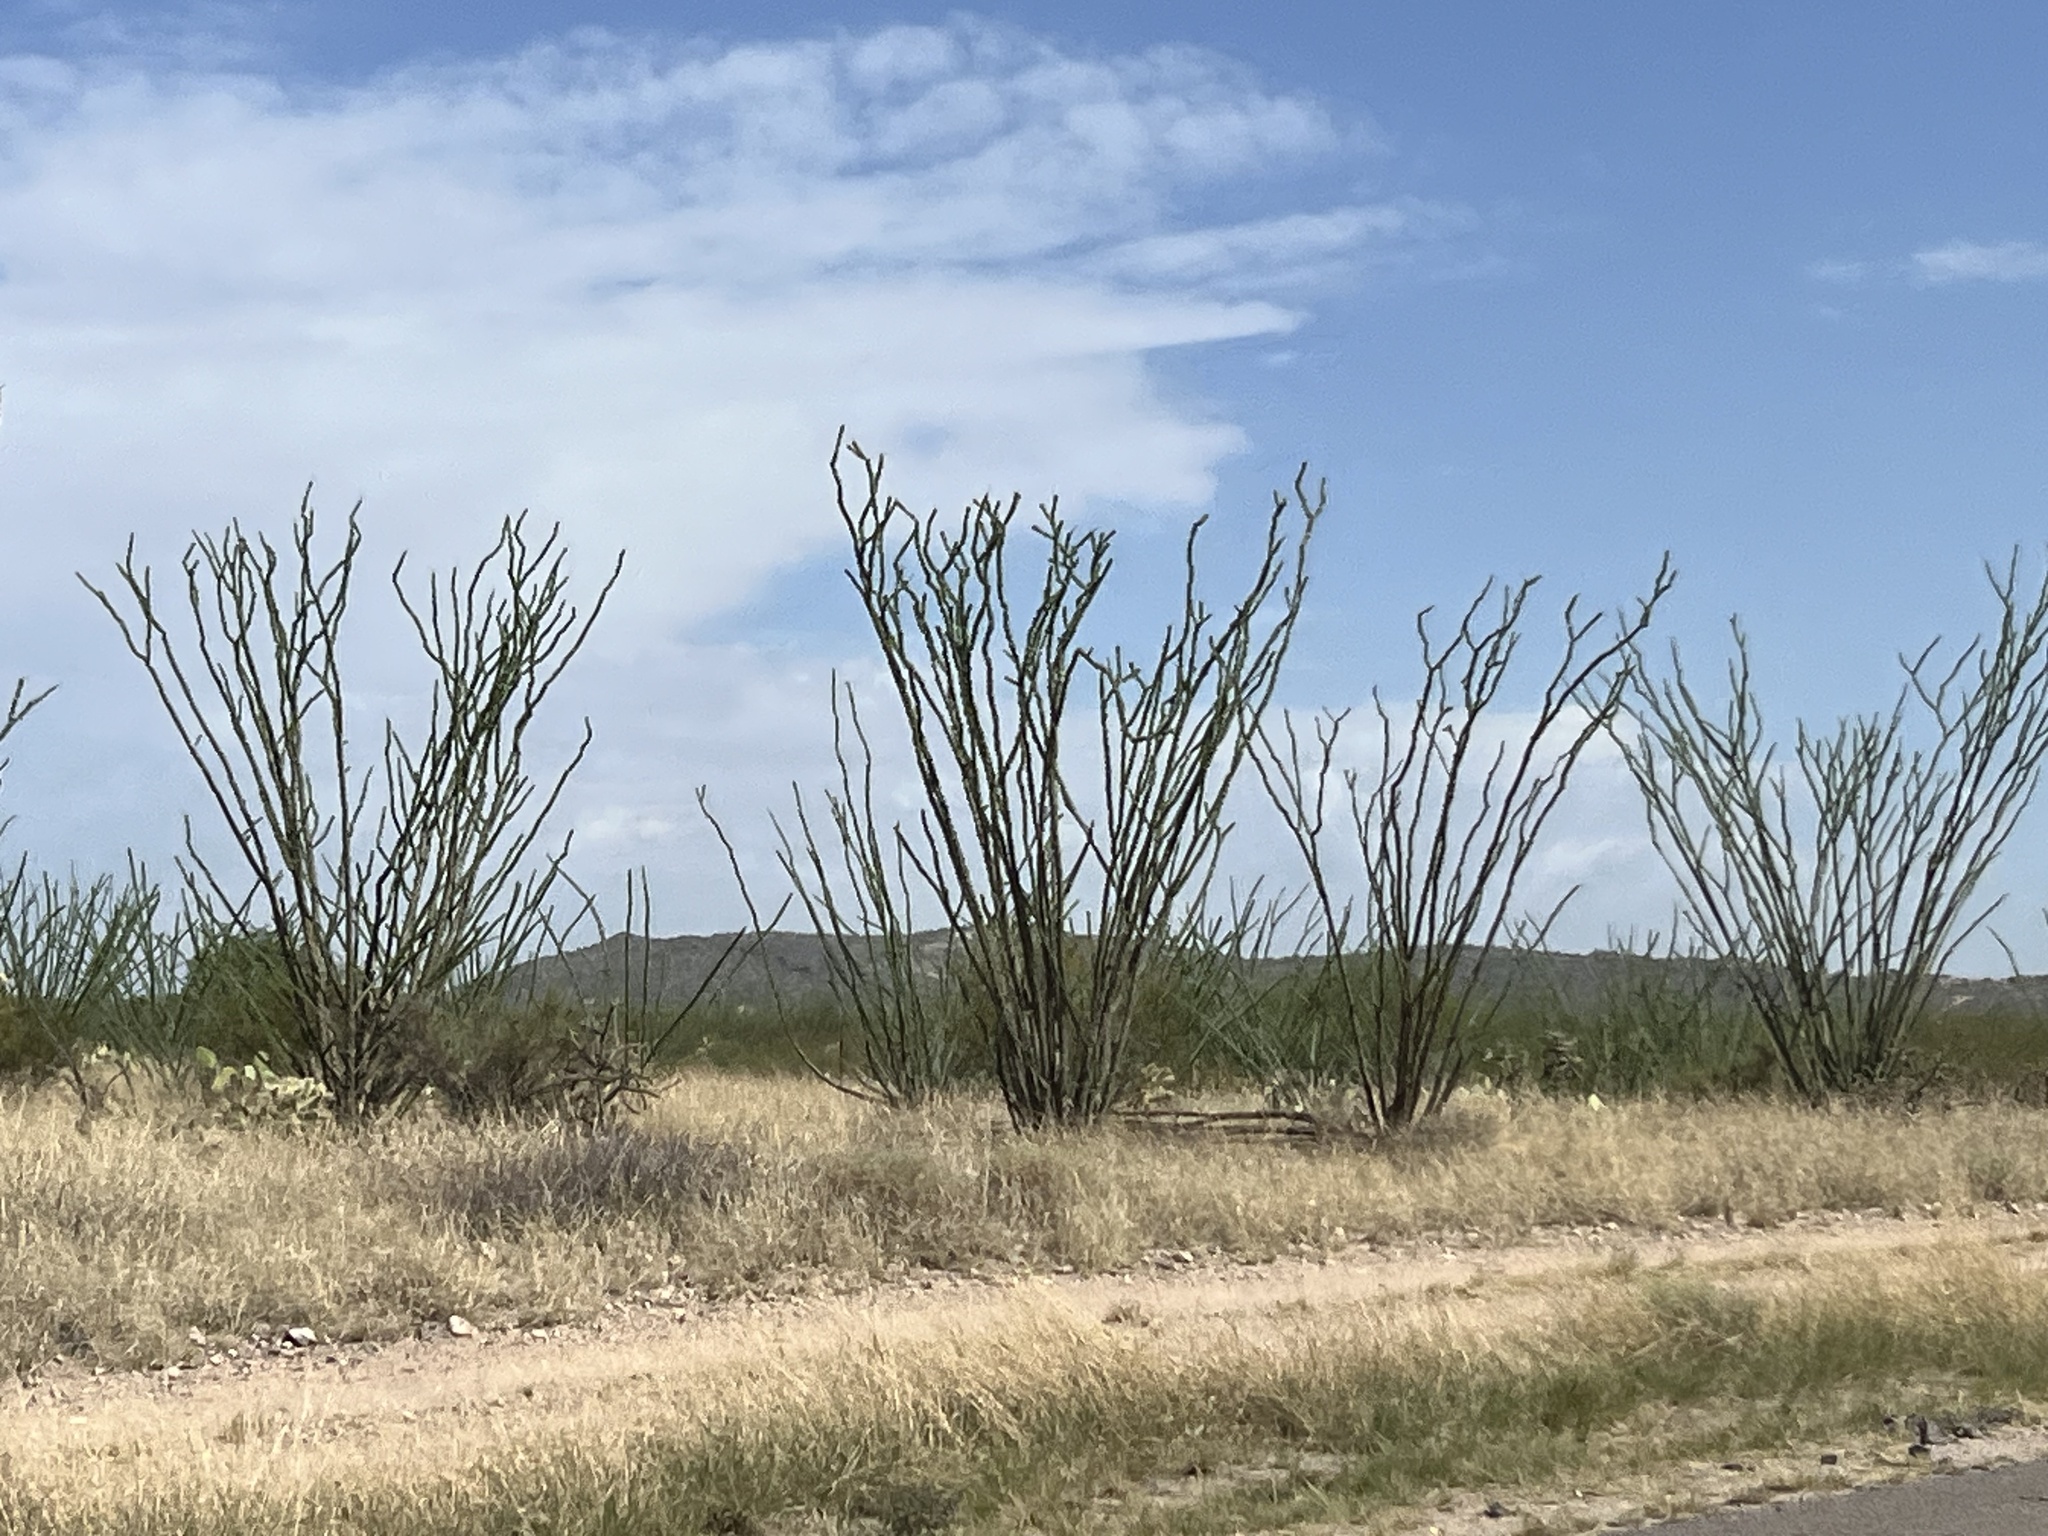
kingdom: Plantae
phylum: Tracheophyta
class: Magnoliopsida
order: Ericales
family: Fouquieriaceae
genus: Fouquieria
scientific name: Fouquieria splendens
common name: Vine-cactus
